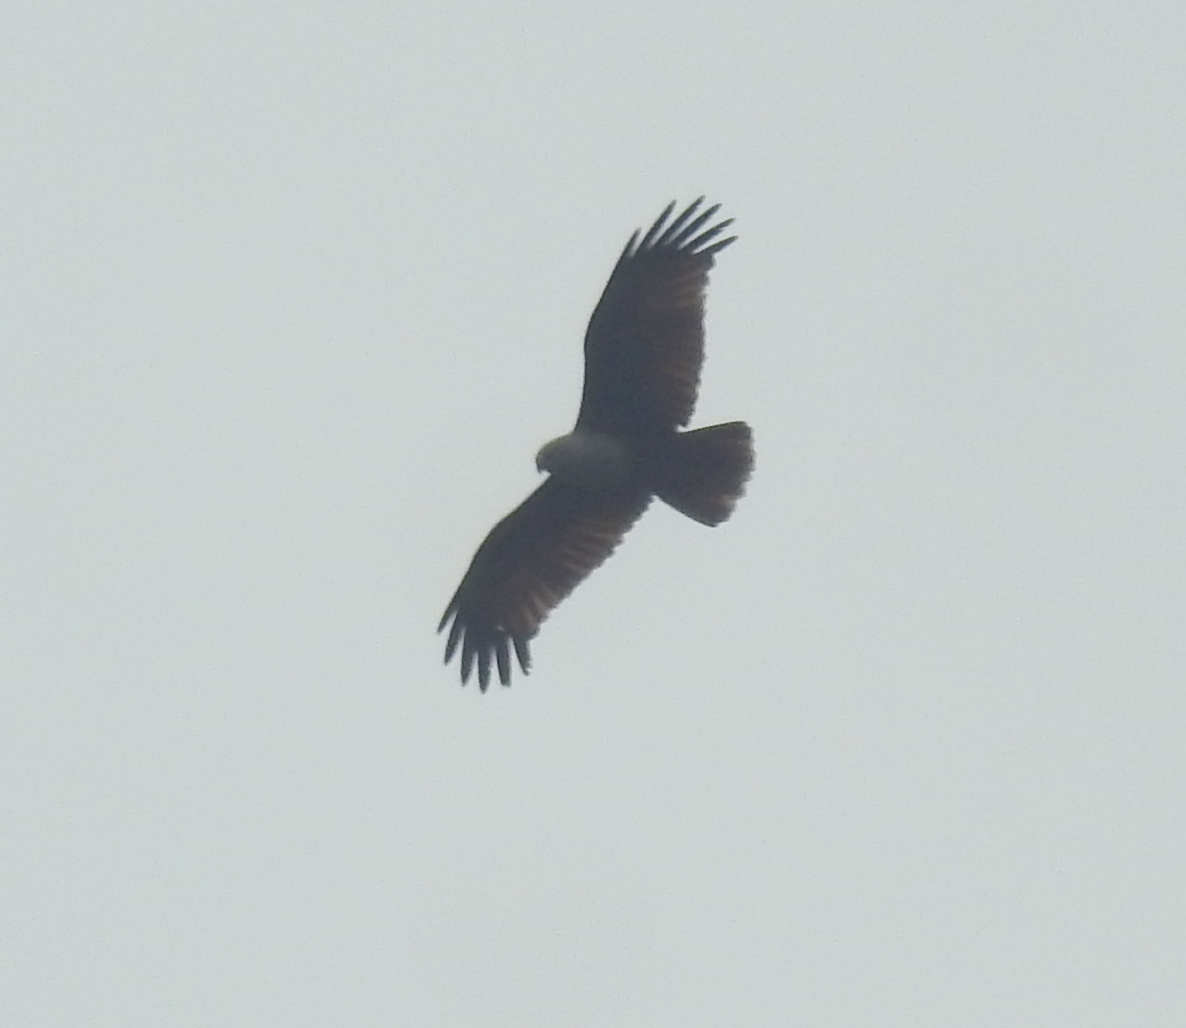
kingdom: Animalia
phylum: Chordata
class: Aves
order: Accipitriformes
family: Accipitridae
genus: Haliastur
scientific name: Haliastur indus
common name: Brahminy kite
